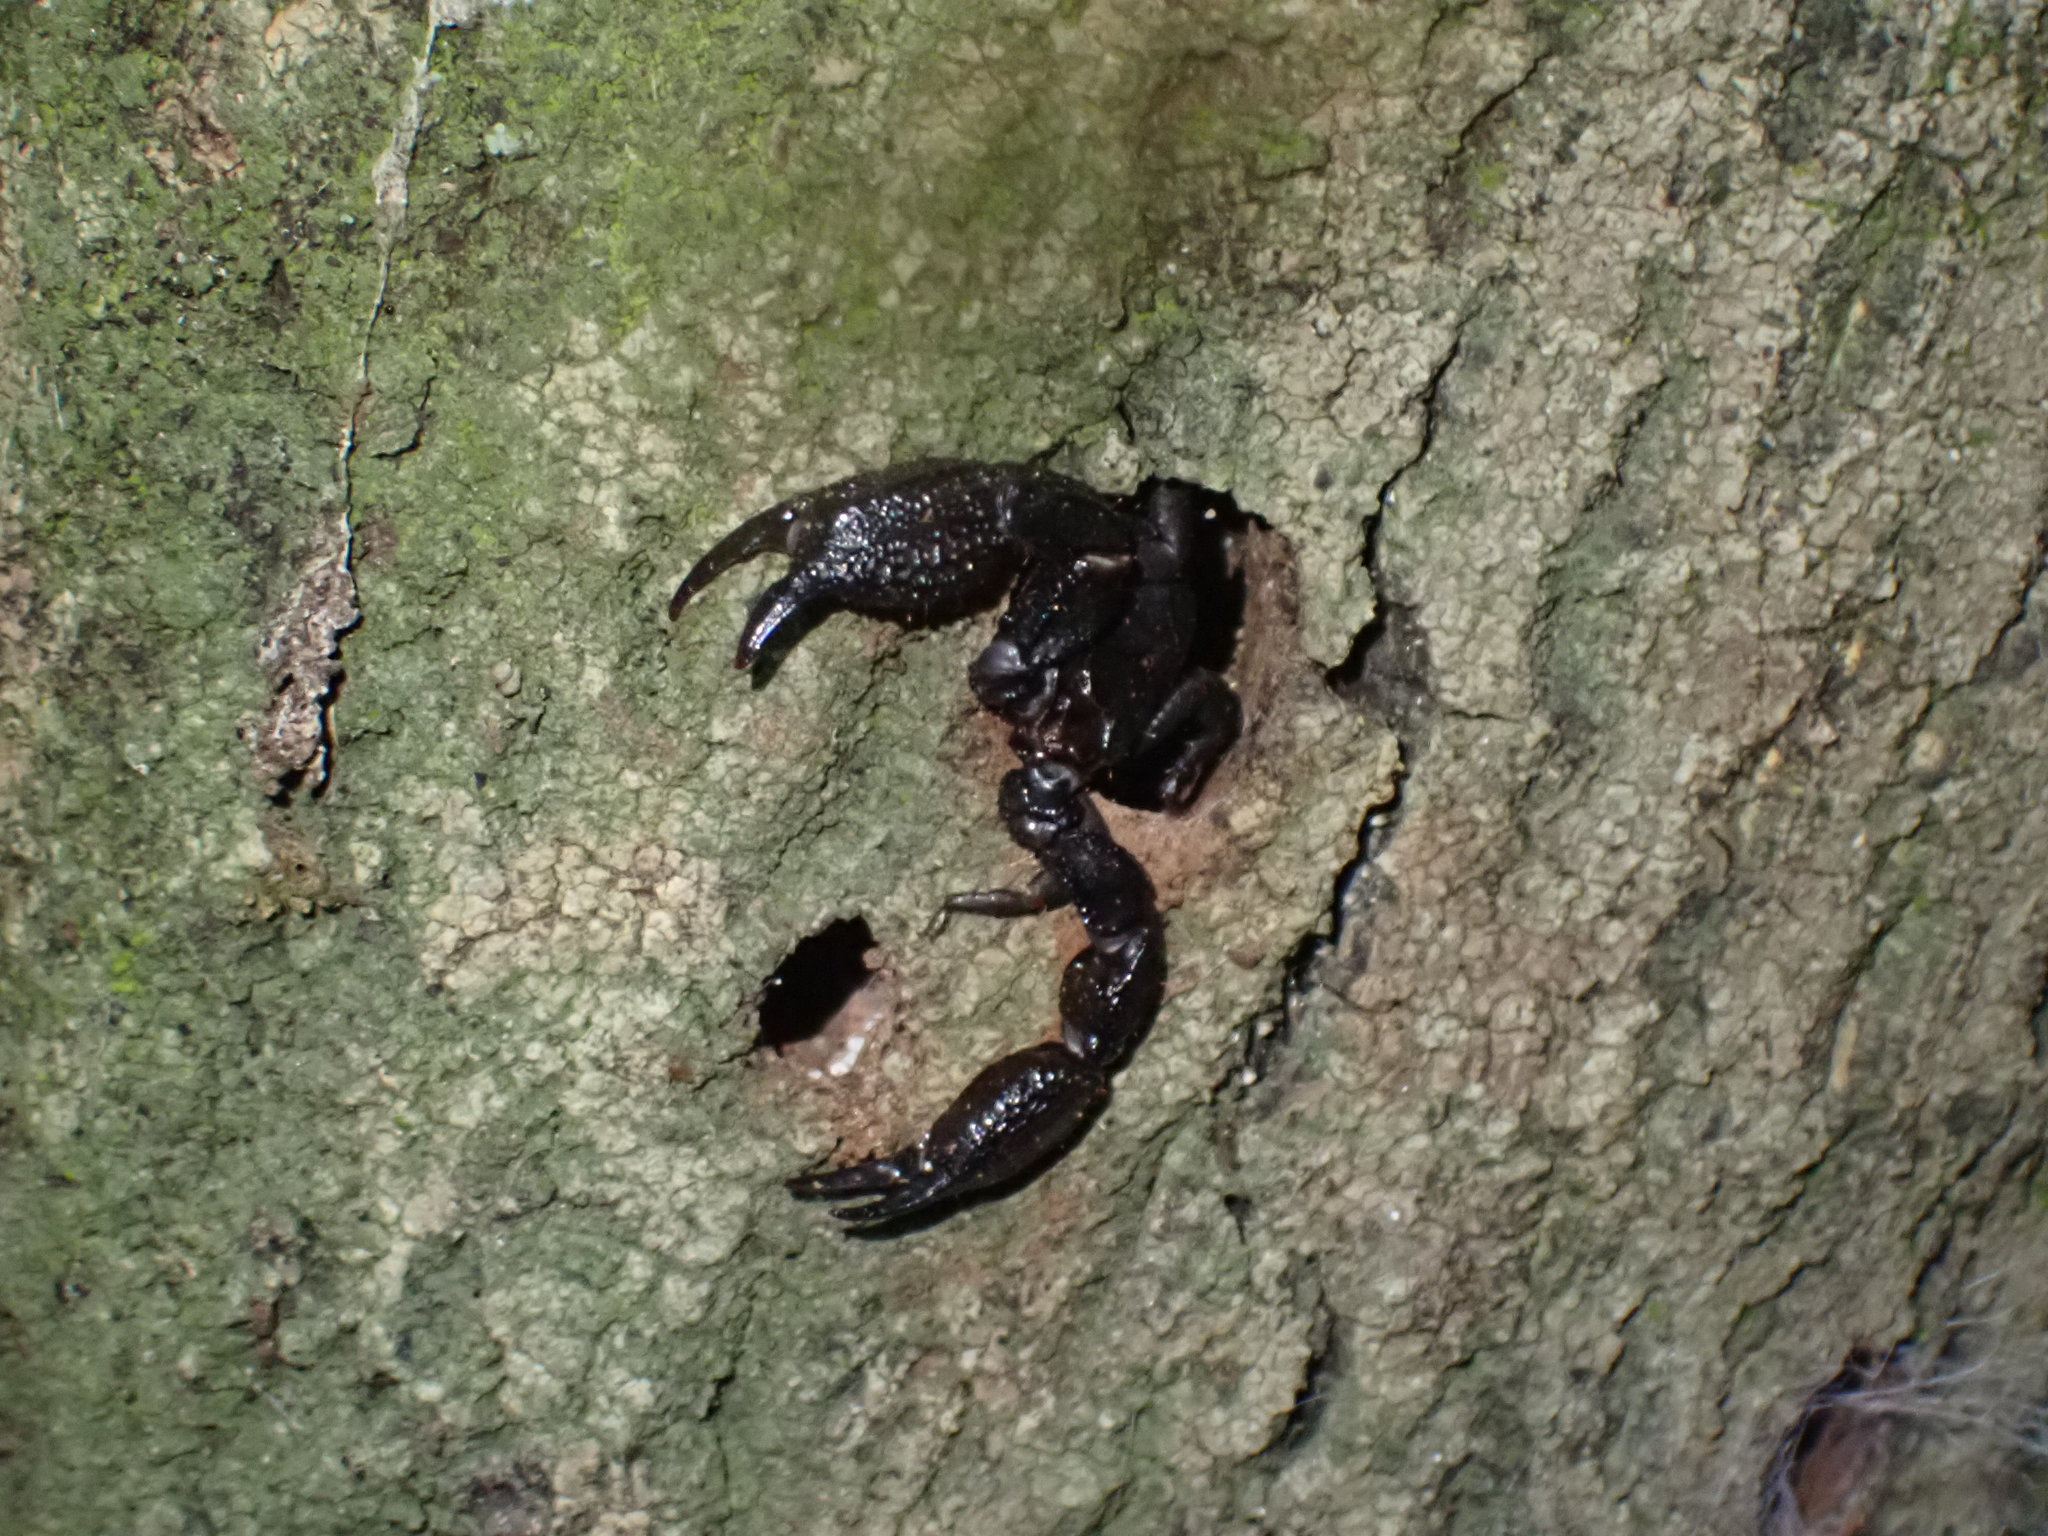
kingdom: Animalia
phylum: Arthropoda
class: Arachnida
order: Scorpiones
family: Hormuridae
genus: Opisthacanthus
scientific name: Opisthacanthus capensis
